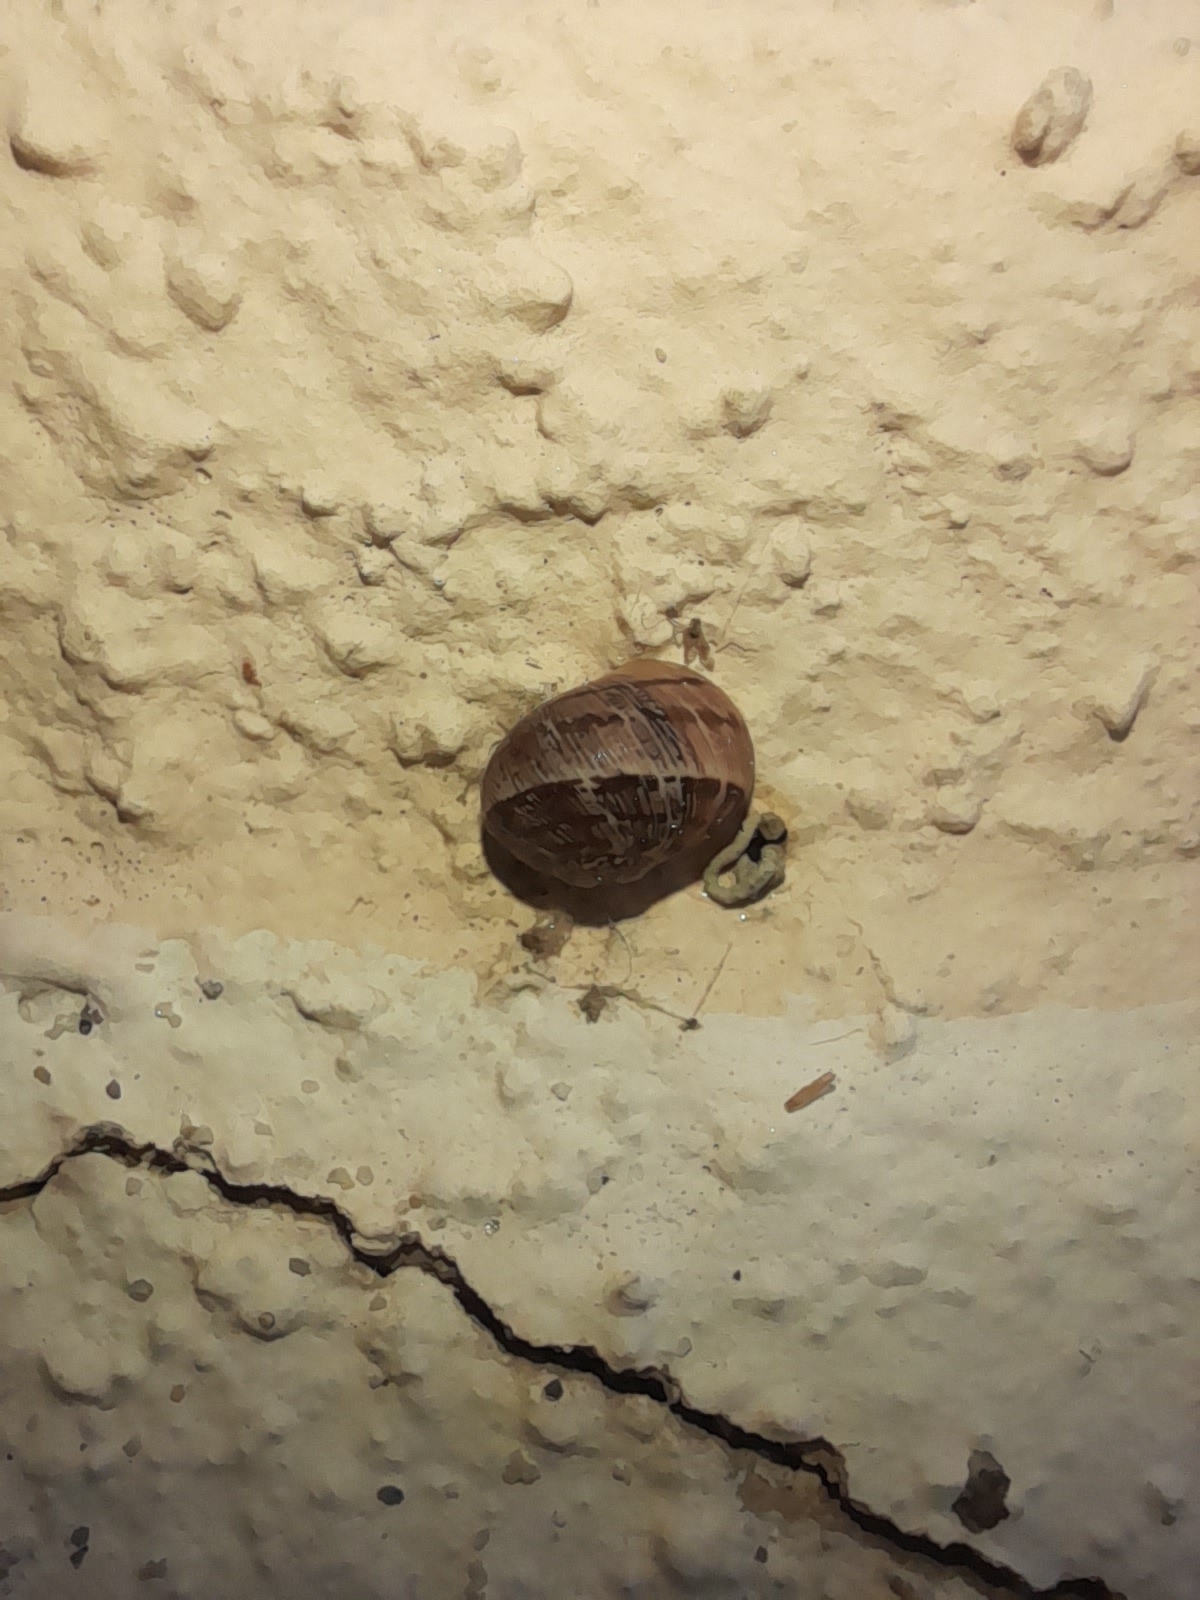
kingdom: Animalia
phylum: Mollusca
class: Gastropoda
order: Stylommatophora
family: Helicidae
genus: Cornu
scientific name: Cornu aspersum
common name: Brown garden snail
